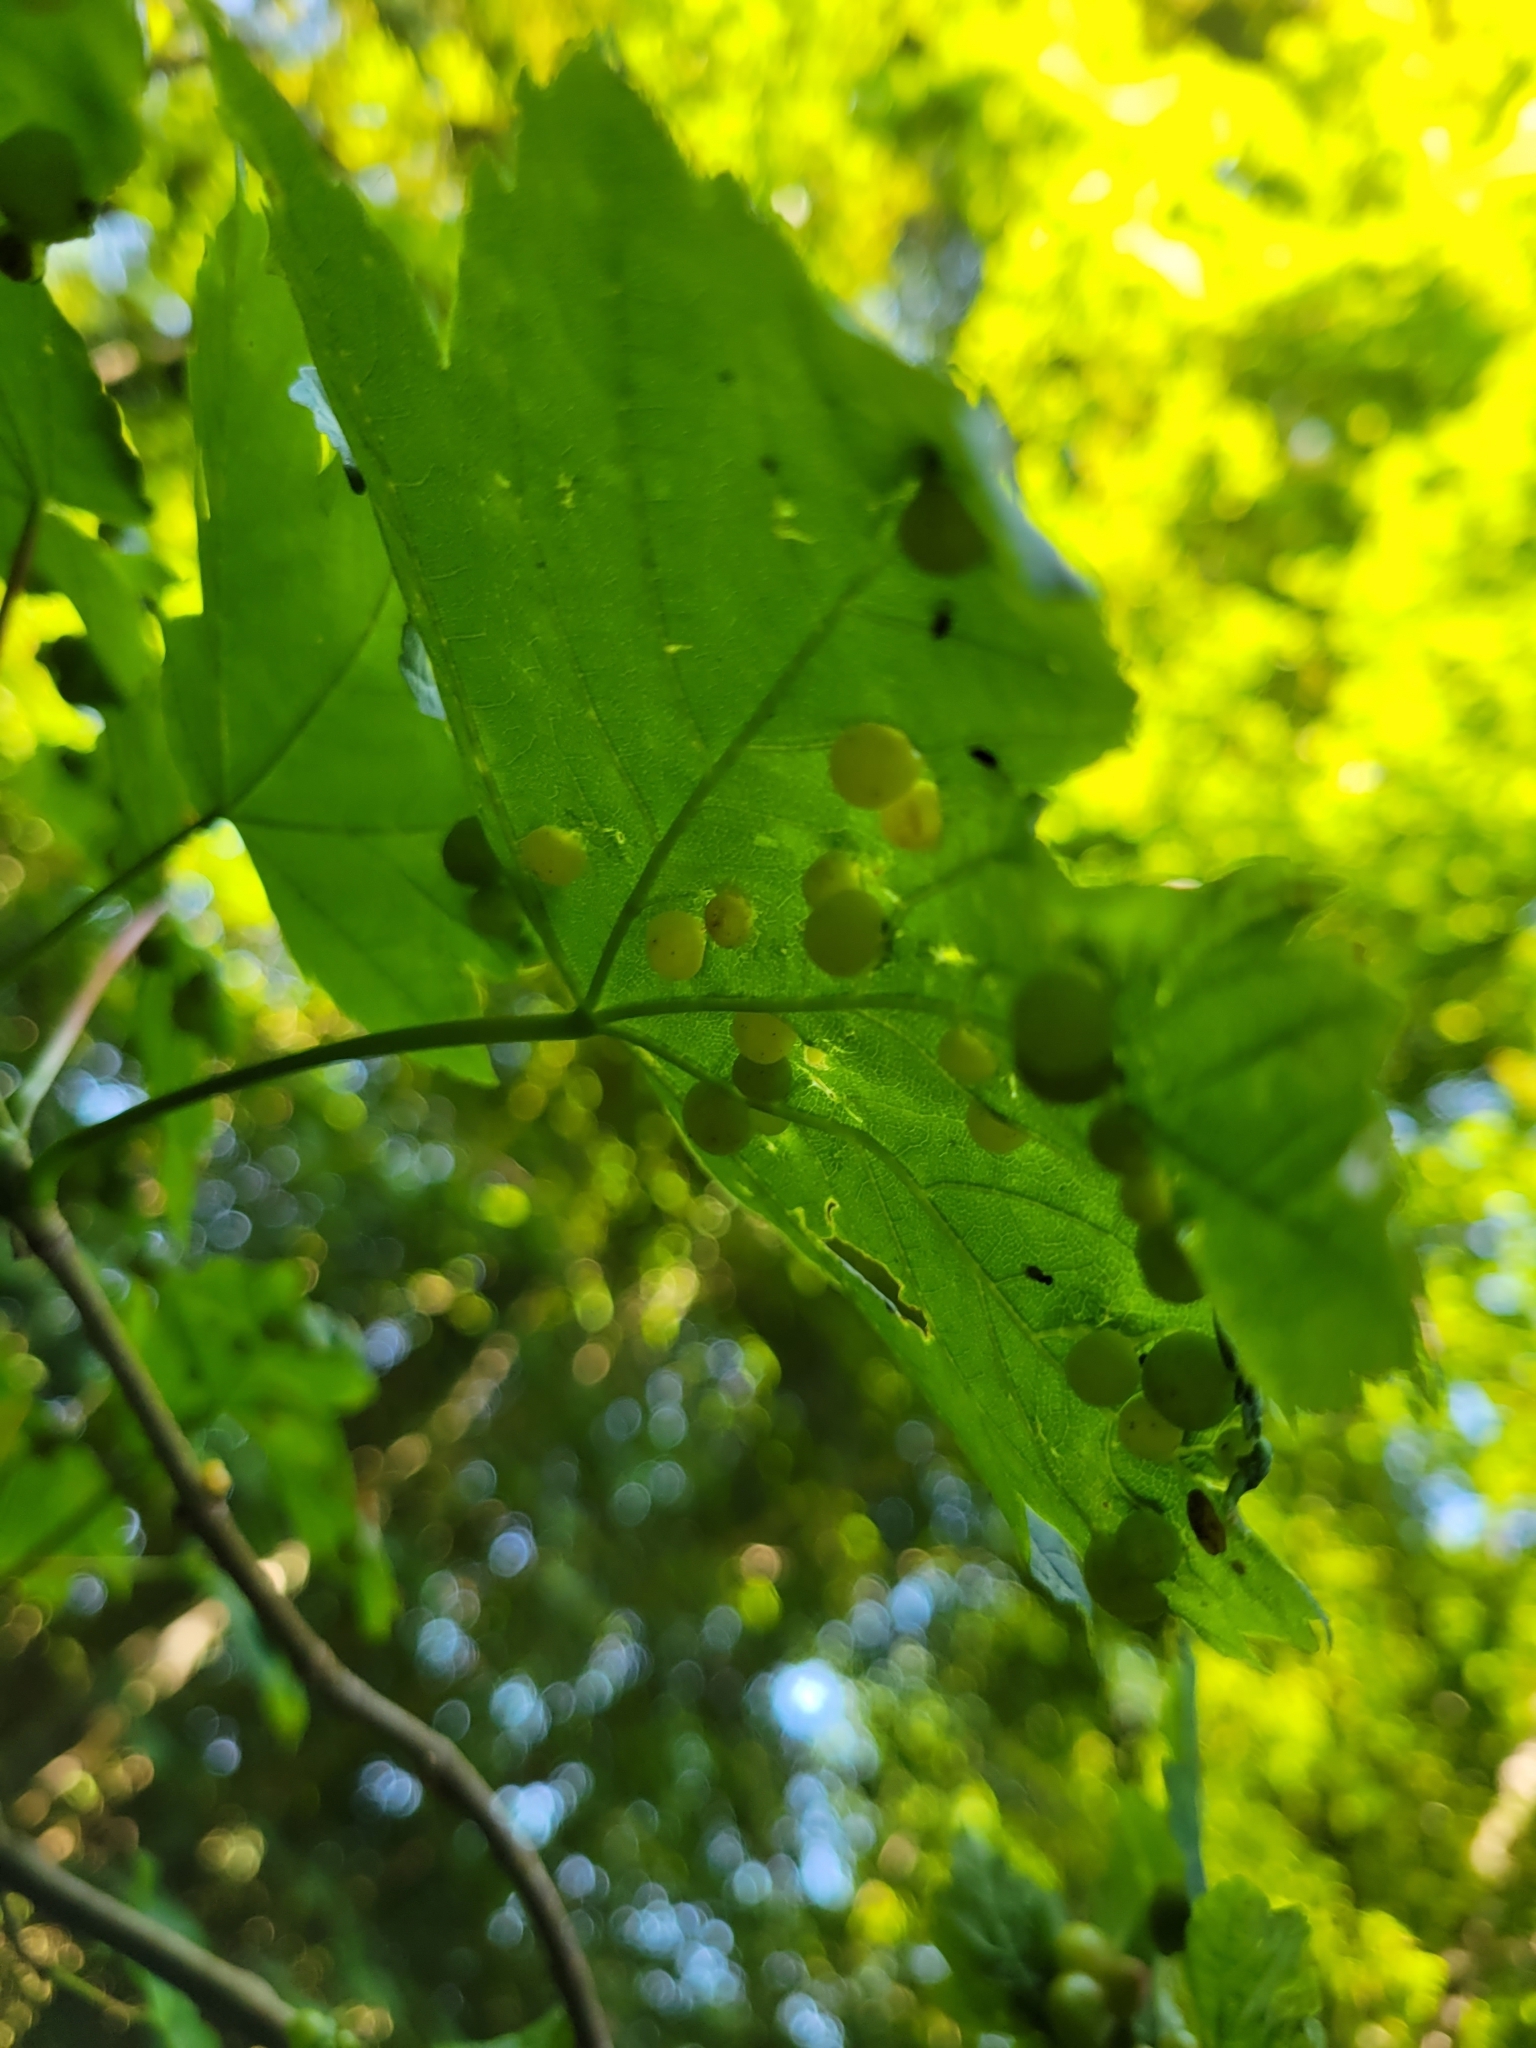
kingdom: Animalia
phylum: Arthropoda
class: Insecta
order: Hymenoptera
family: Cynipidae
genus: Pediaspis
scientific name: Pediaspis aceris
